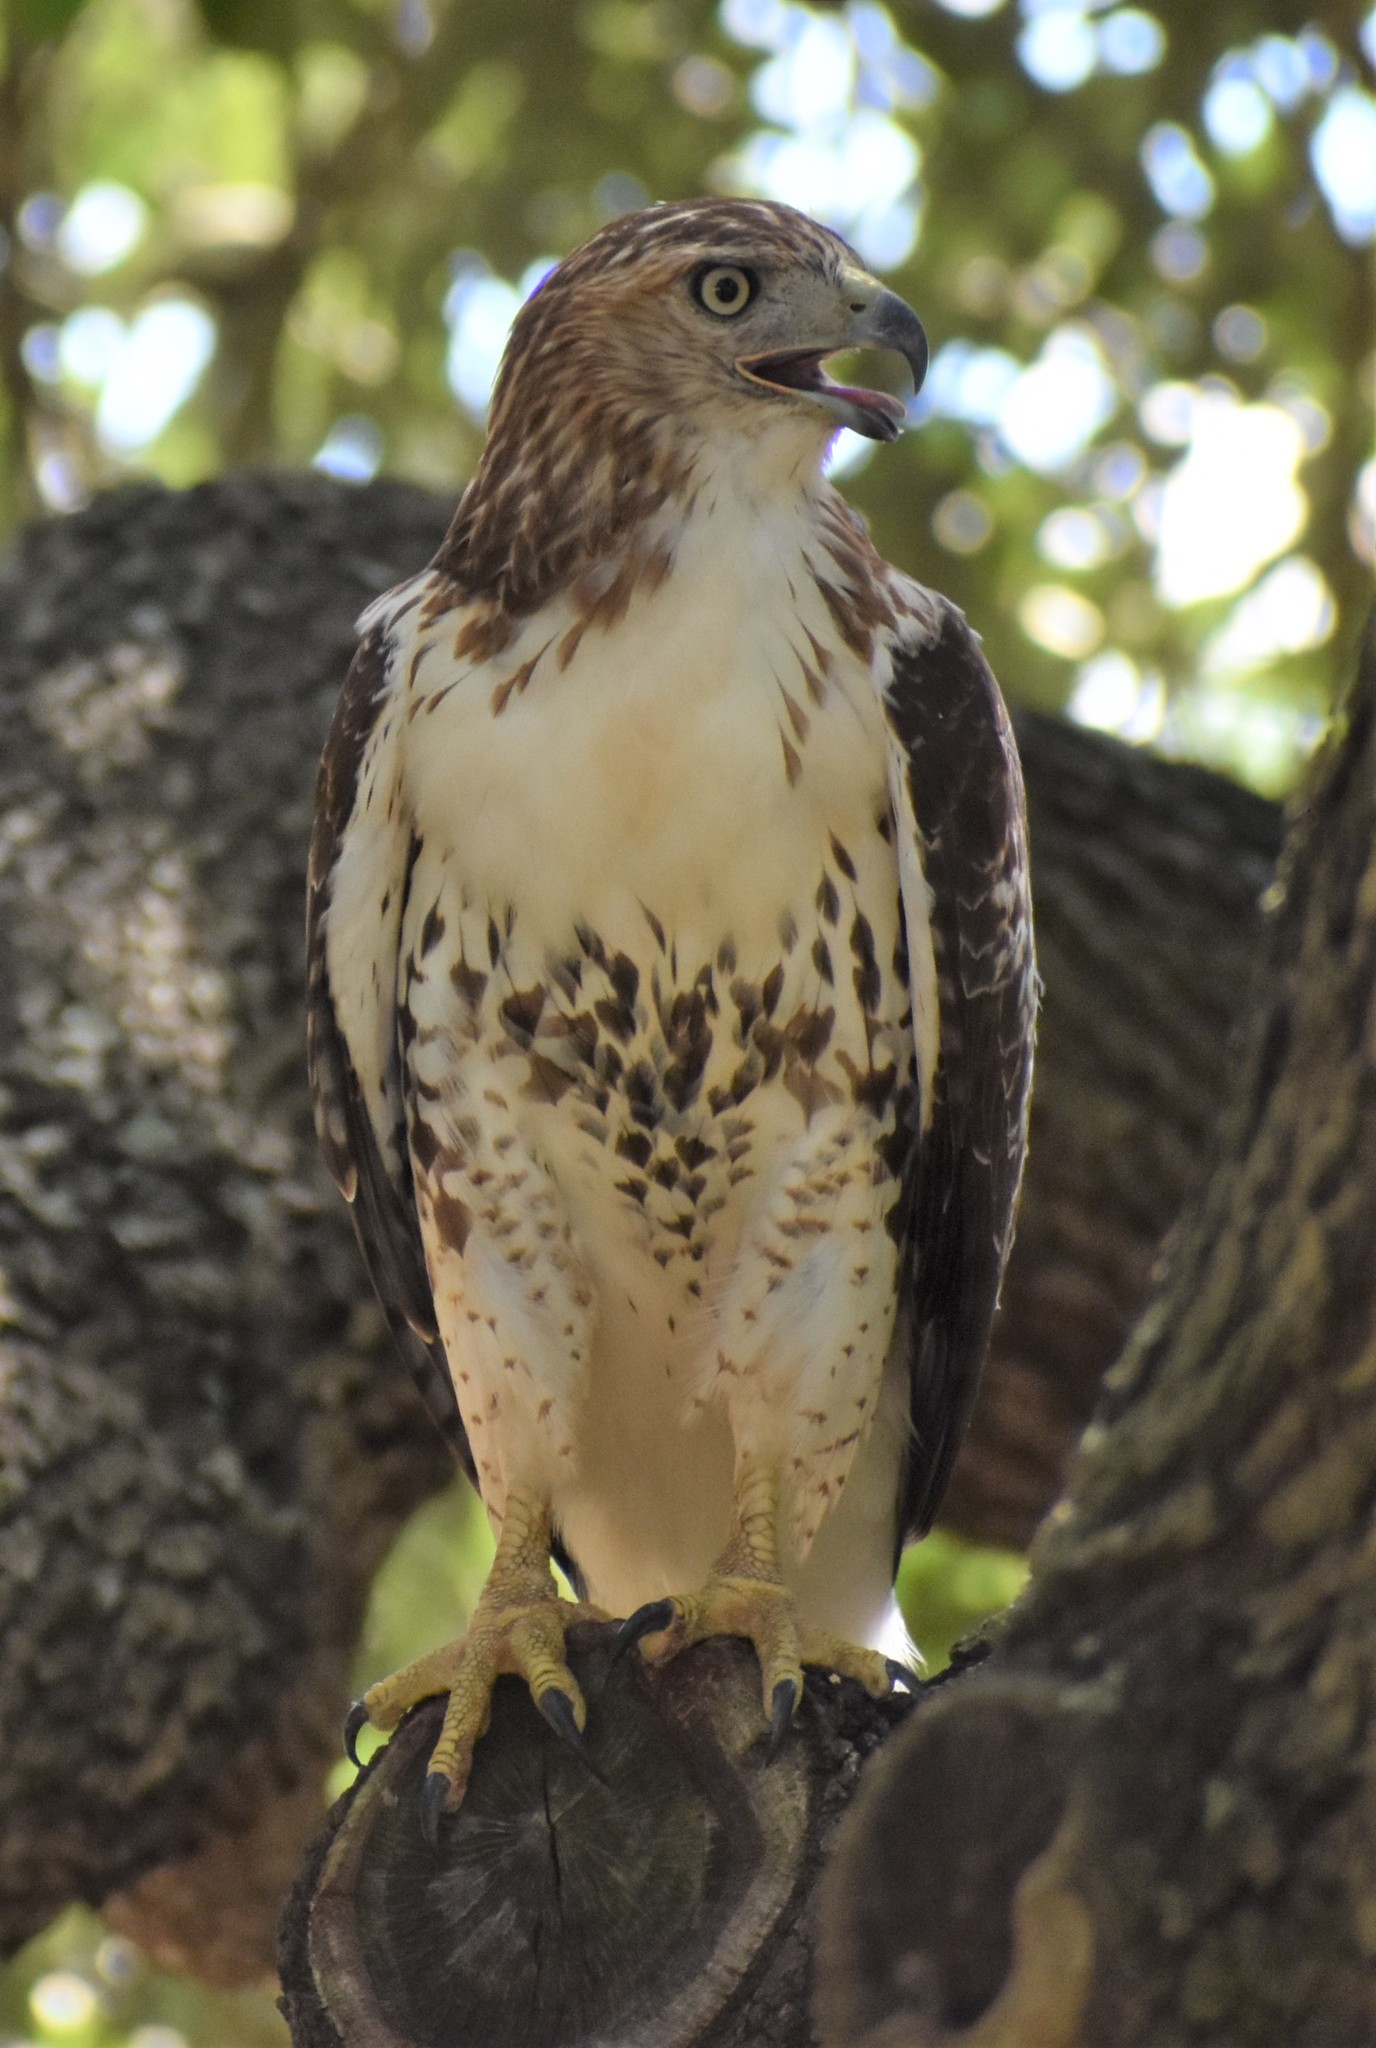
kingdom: Animalia
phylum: Chordata
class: Aves
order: Accipitriformes
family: Accipitridae
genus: Buteo
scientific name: Buteo jamaicensis
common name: Red-tailed hawk
